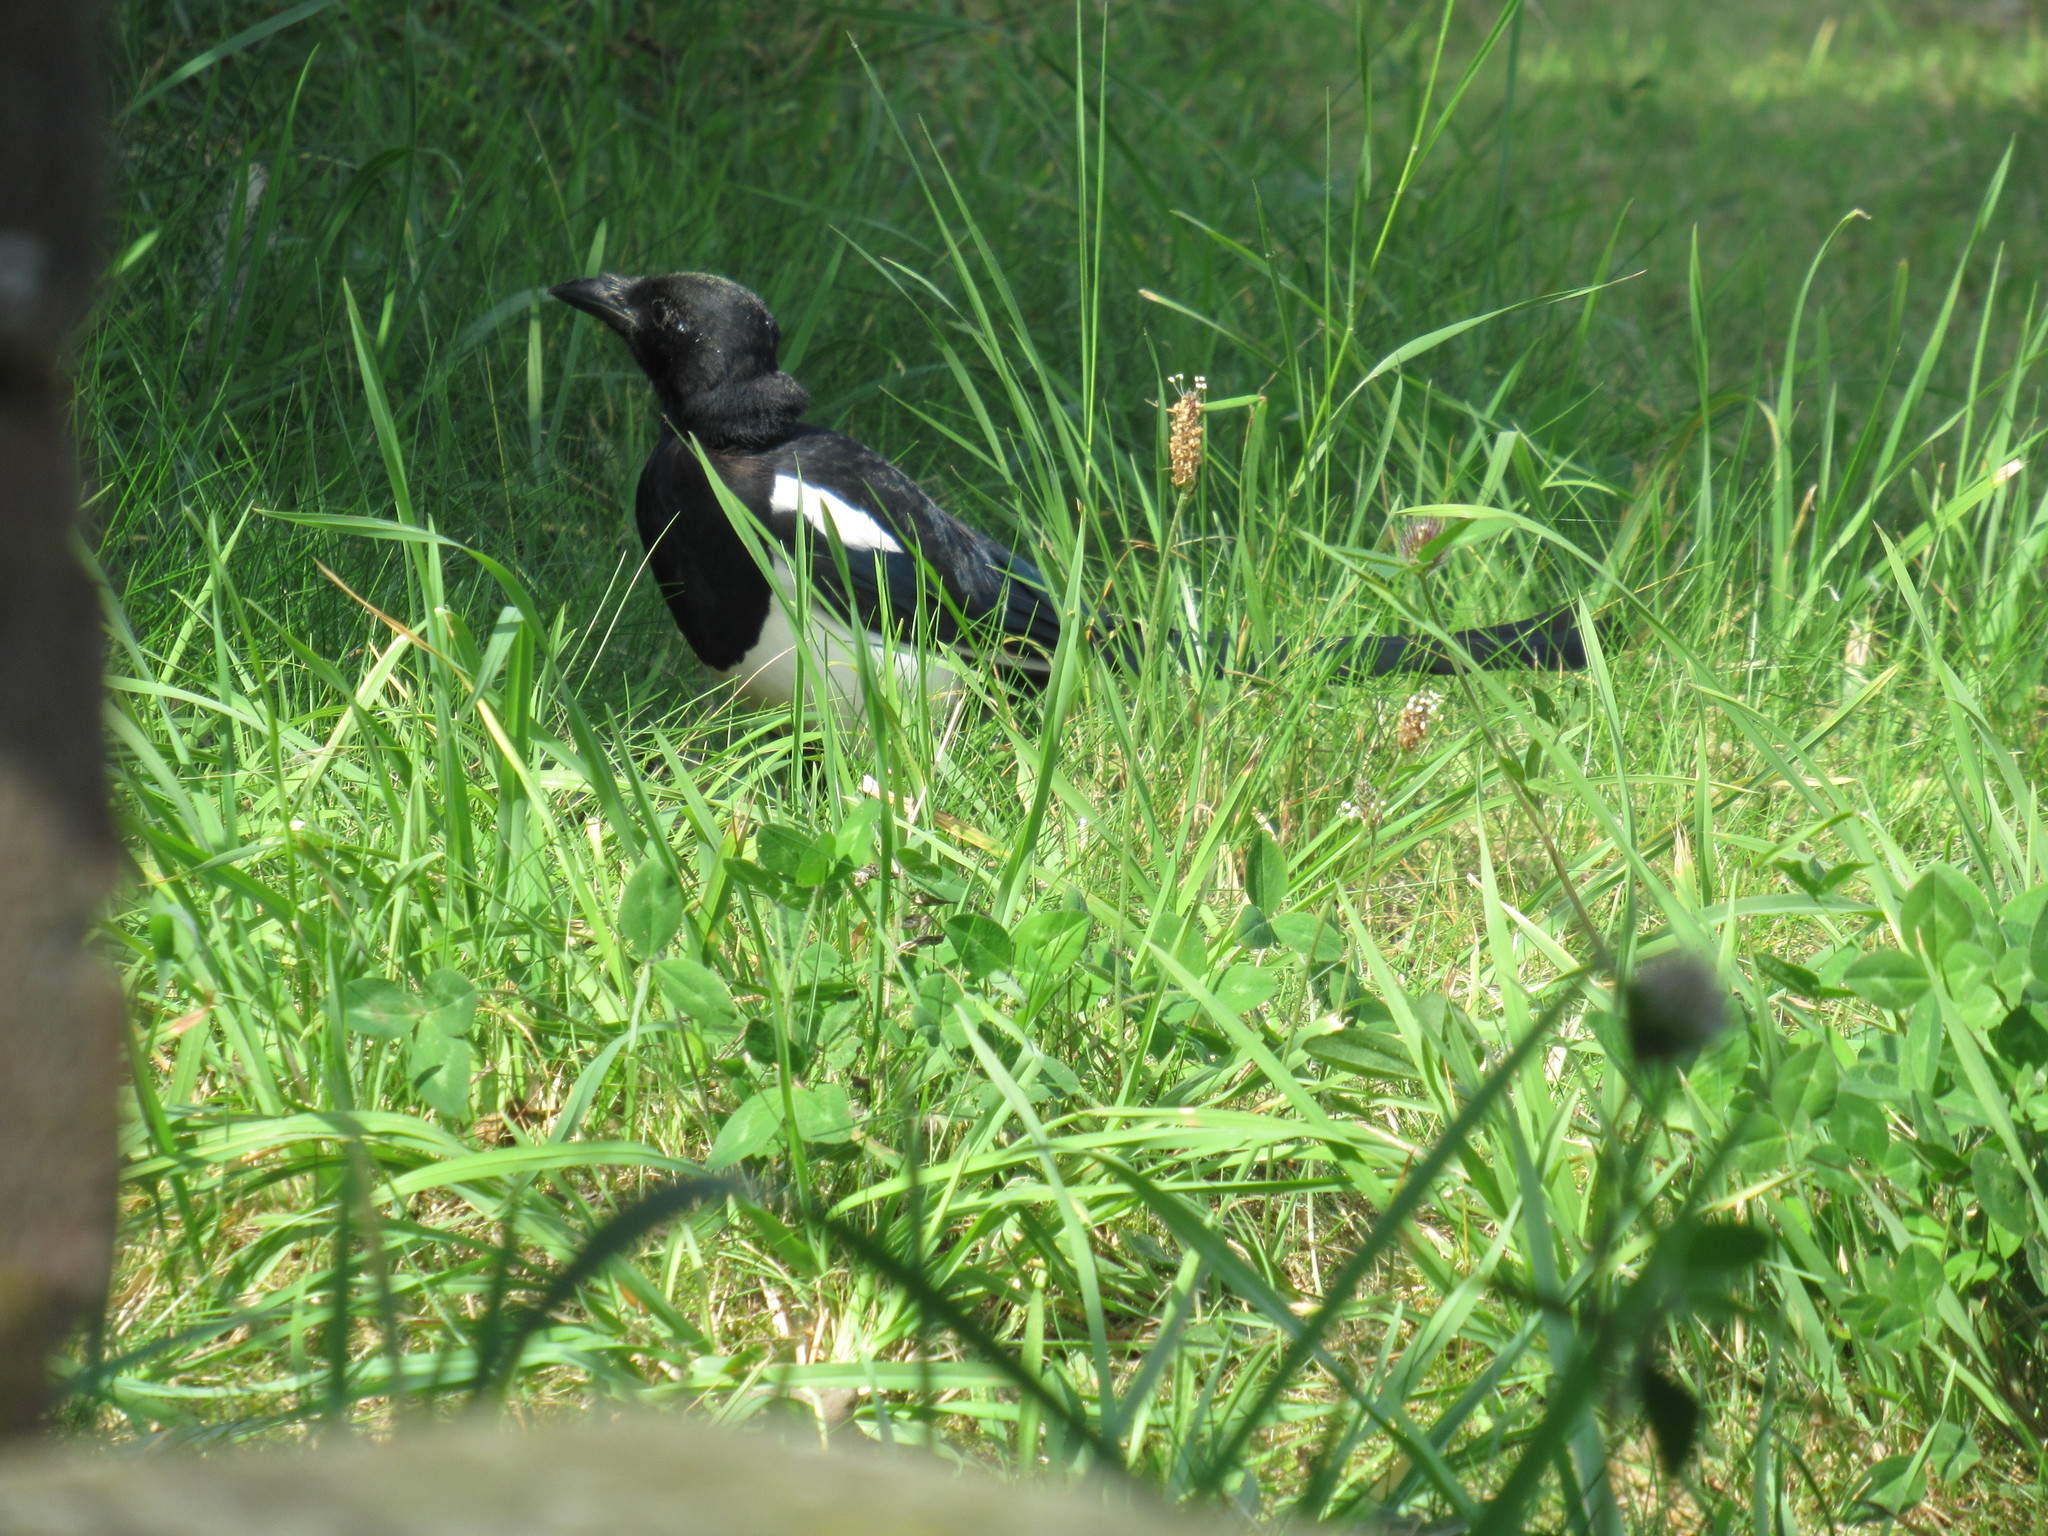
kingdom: Animalia
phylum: Chordata
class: Aves
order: Passeriformes
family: Corvidae
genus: Pica
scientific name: Pica pica
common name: Eurasian magpie
